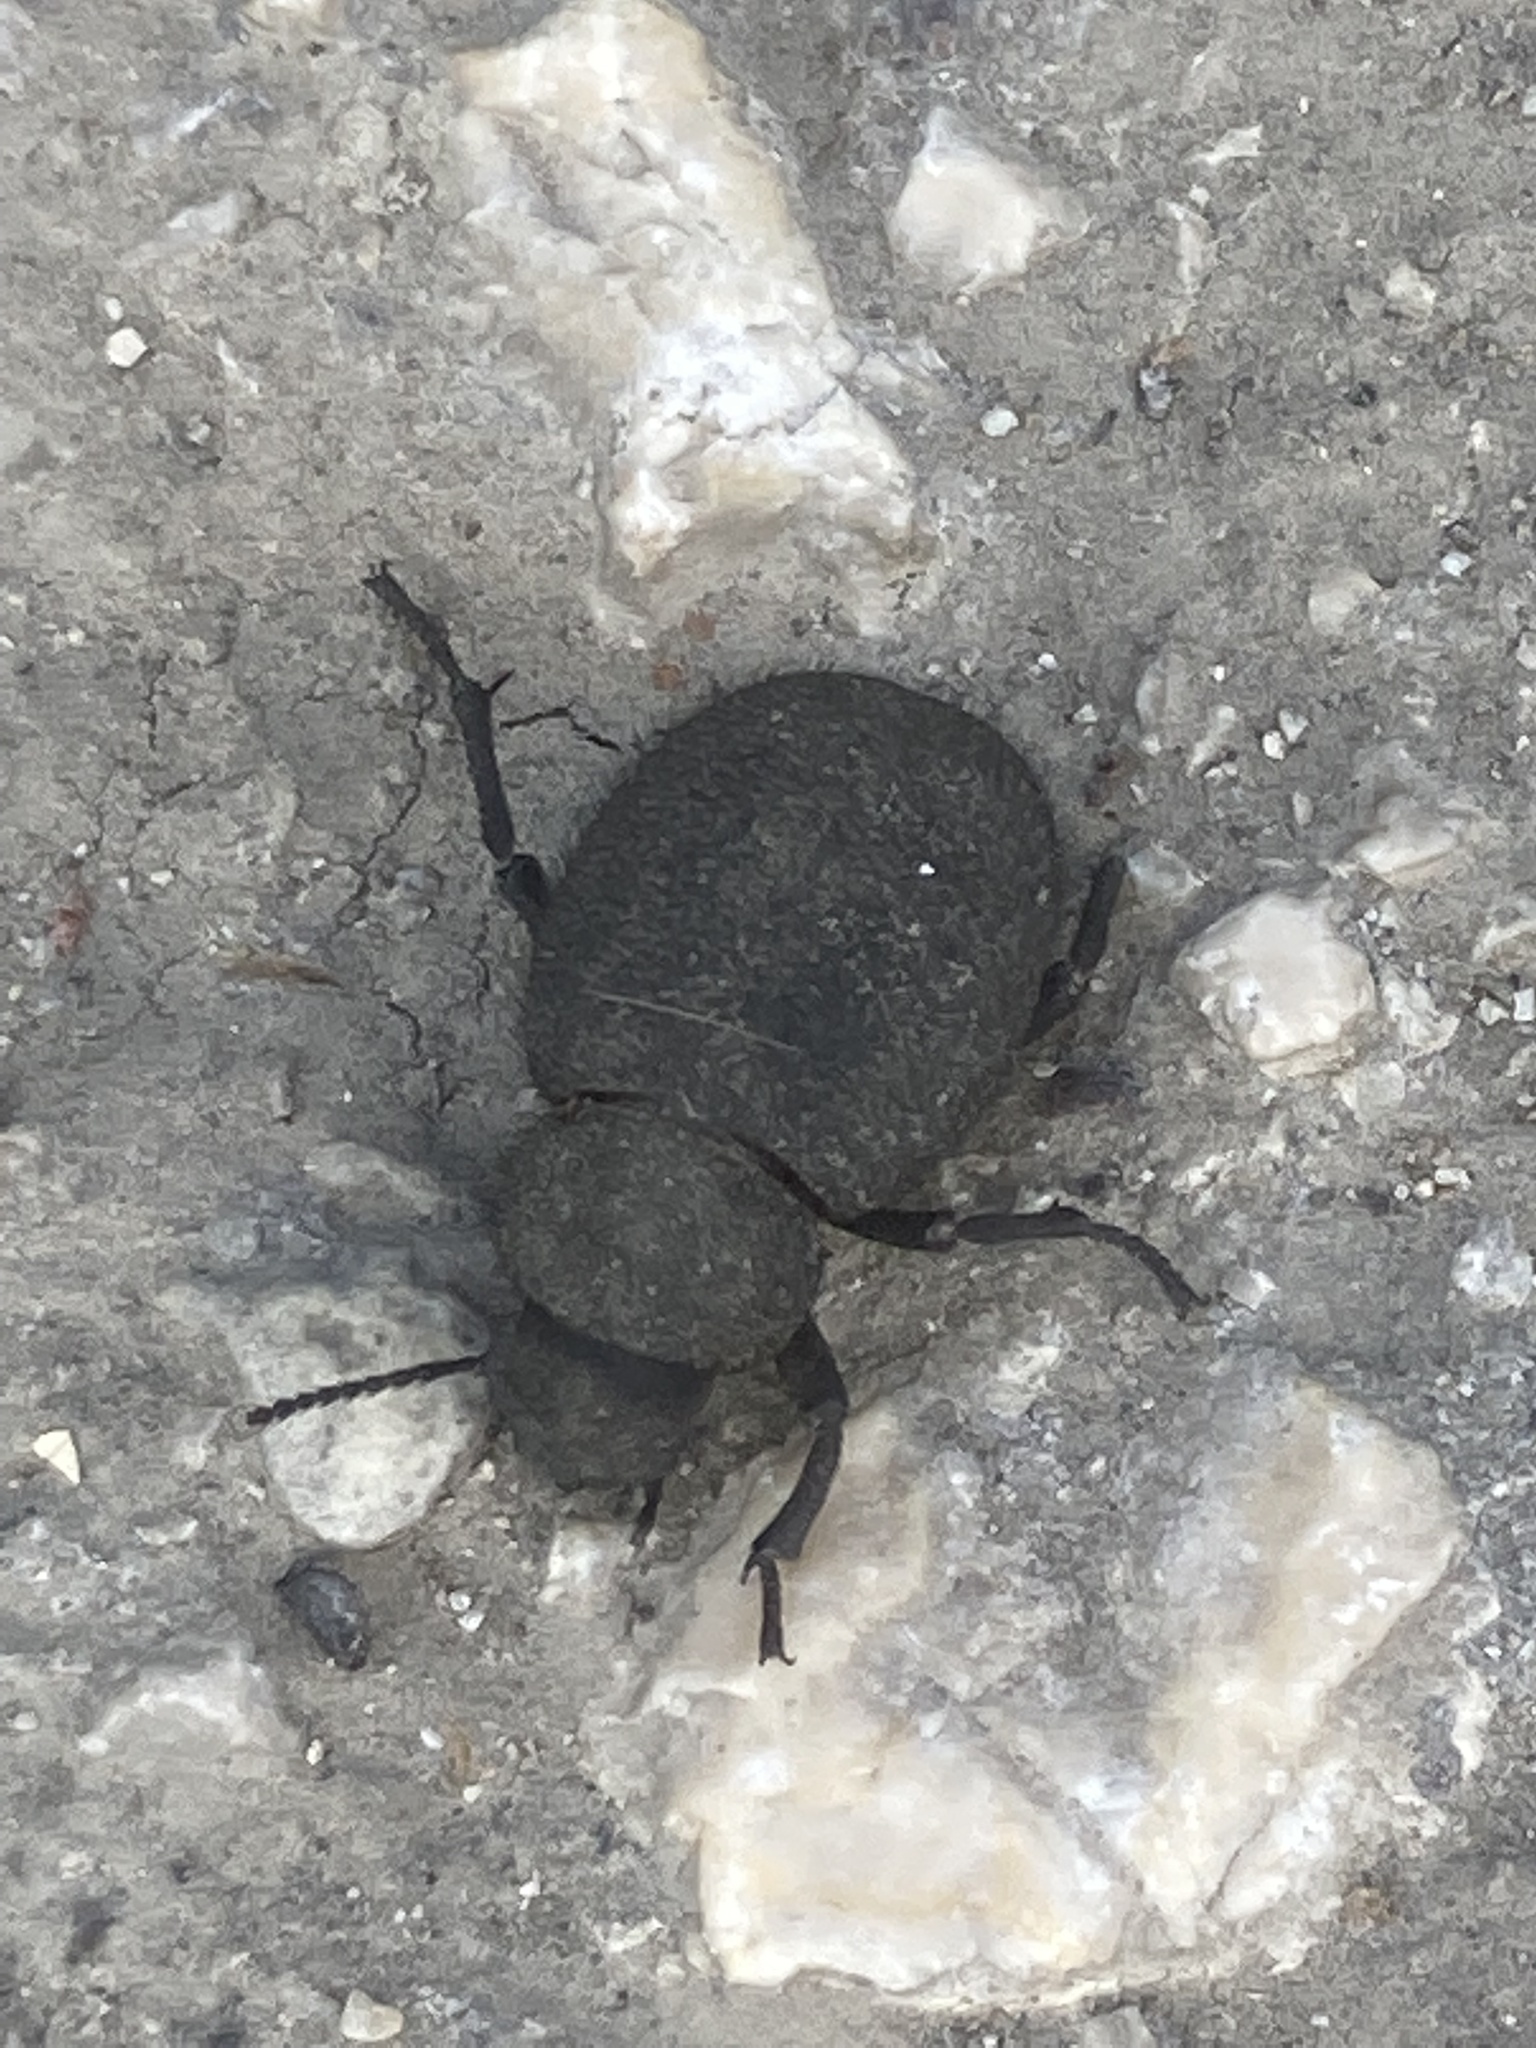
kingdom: Animalia
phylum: Arthropoda
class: Insecta
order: Coleoptera
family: Tenebrionidae
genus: Pachyscelis
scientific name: Pachyscelis villosa
